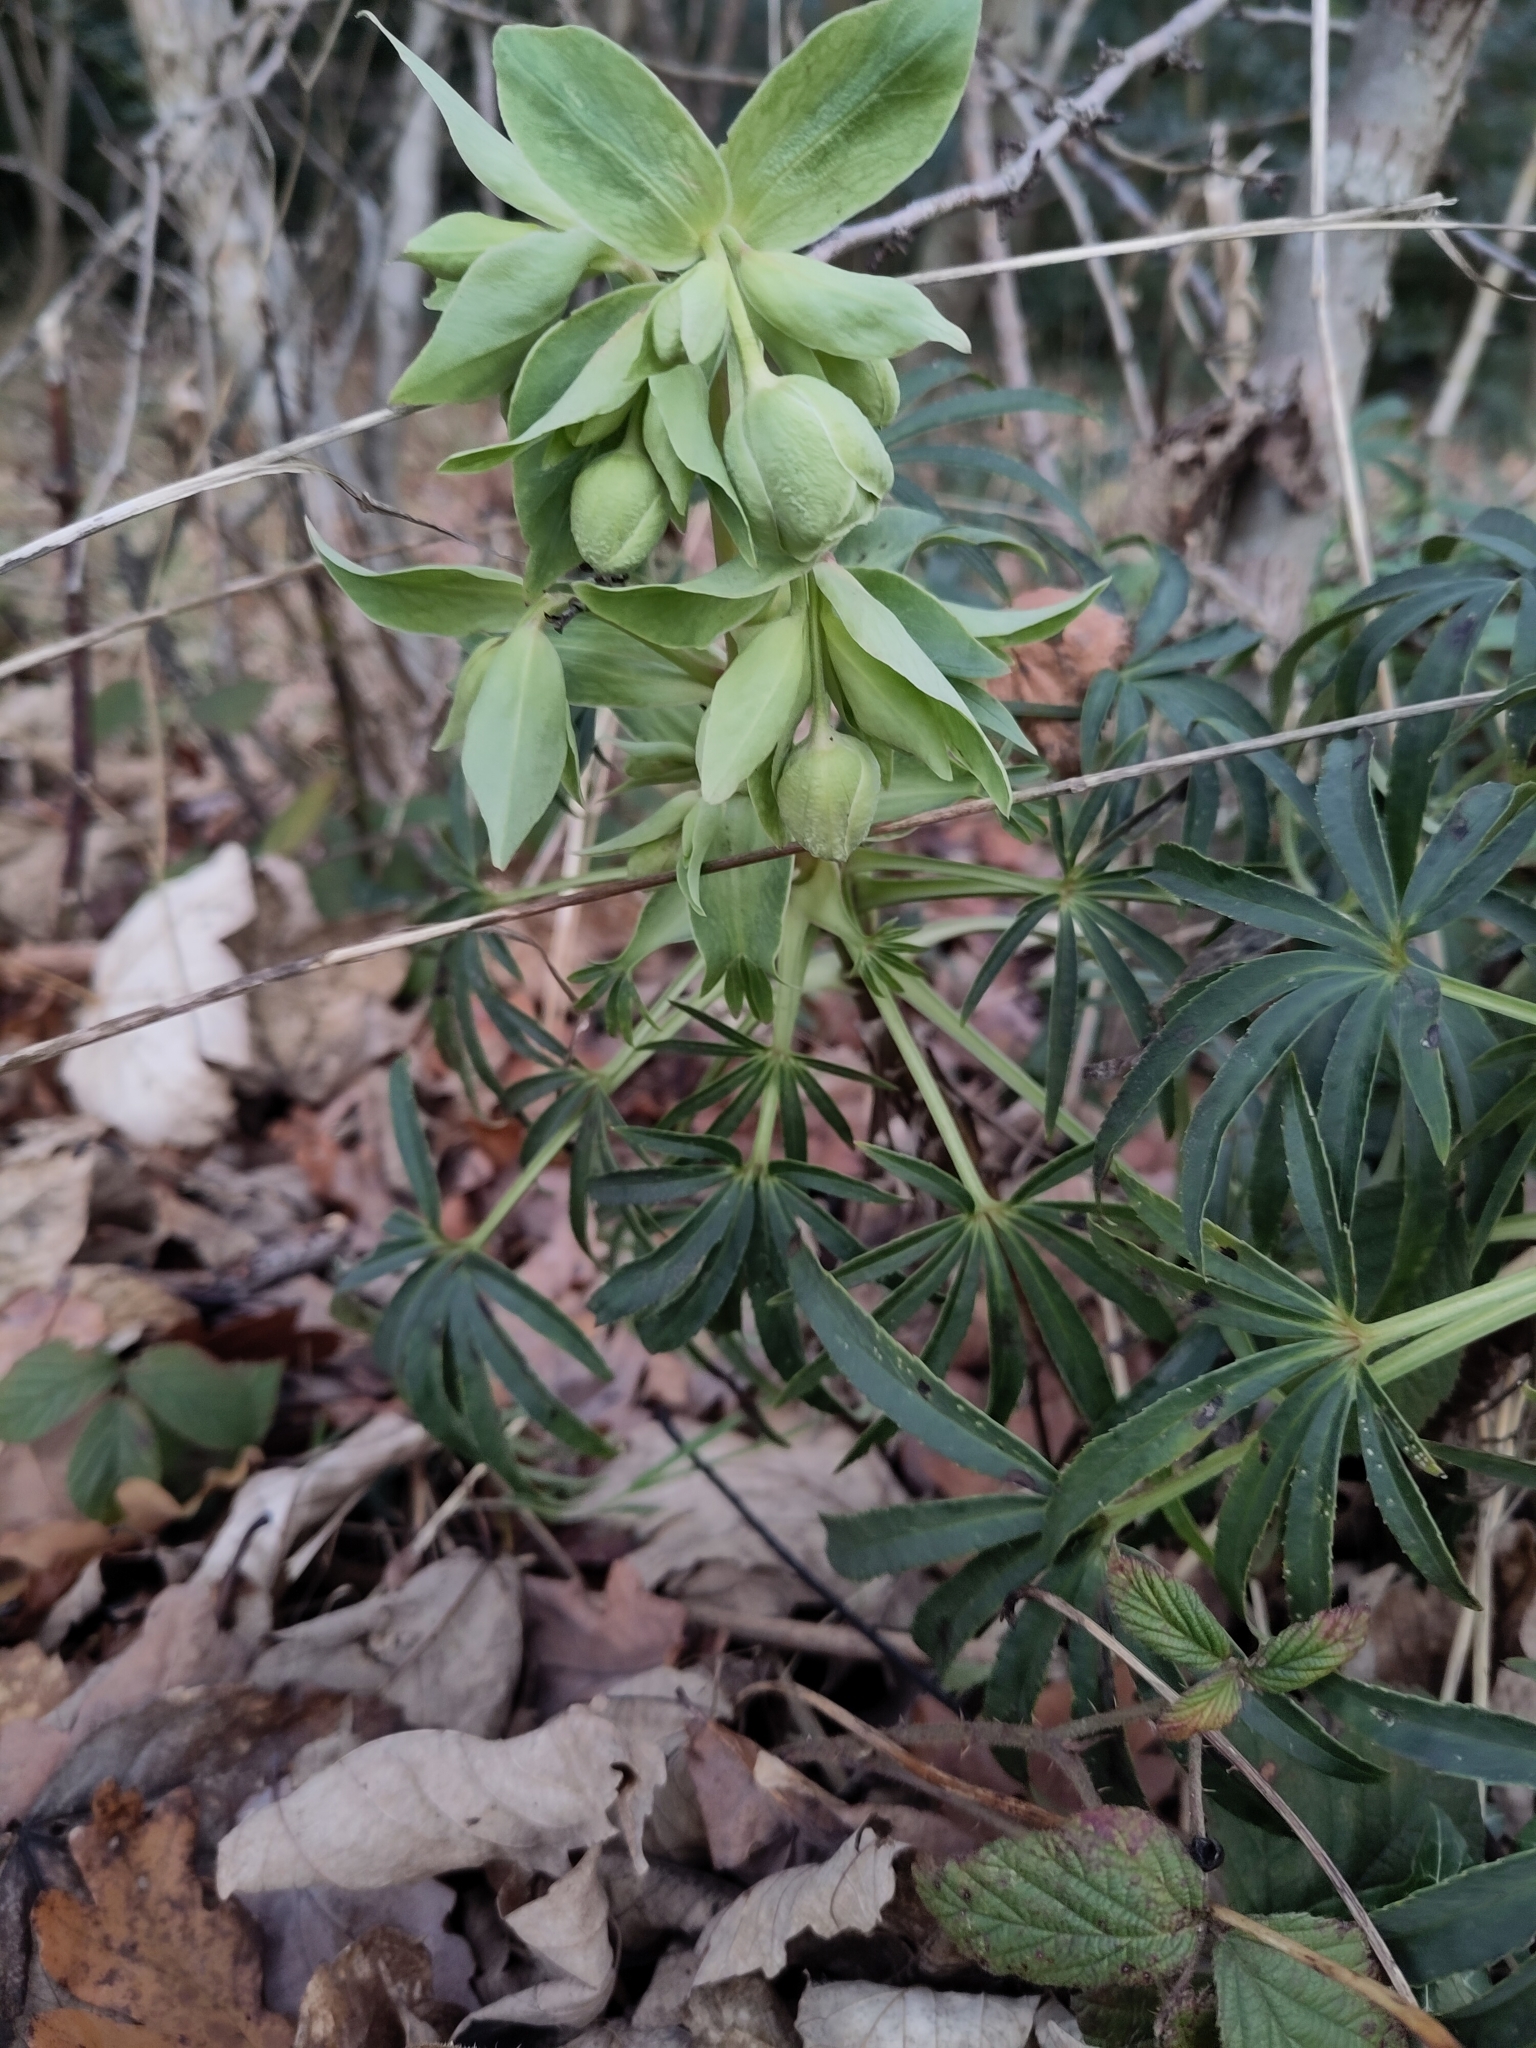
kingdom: Plantae
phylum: Tracheophyta
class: Magnoliopsida
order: Ranunculales
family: Ranunculaceae
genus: Helleborus
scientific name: Helleborus foetidus
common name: Stinking hellebore
